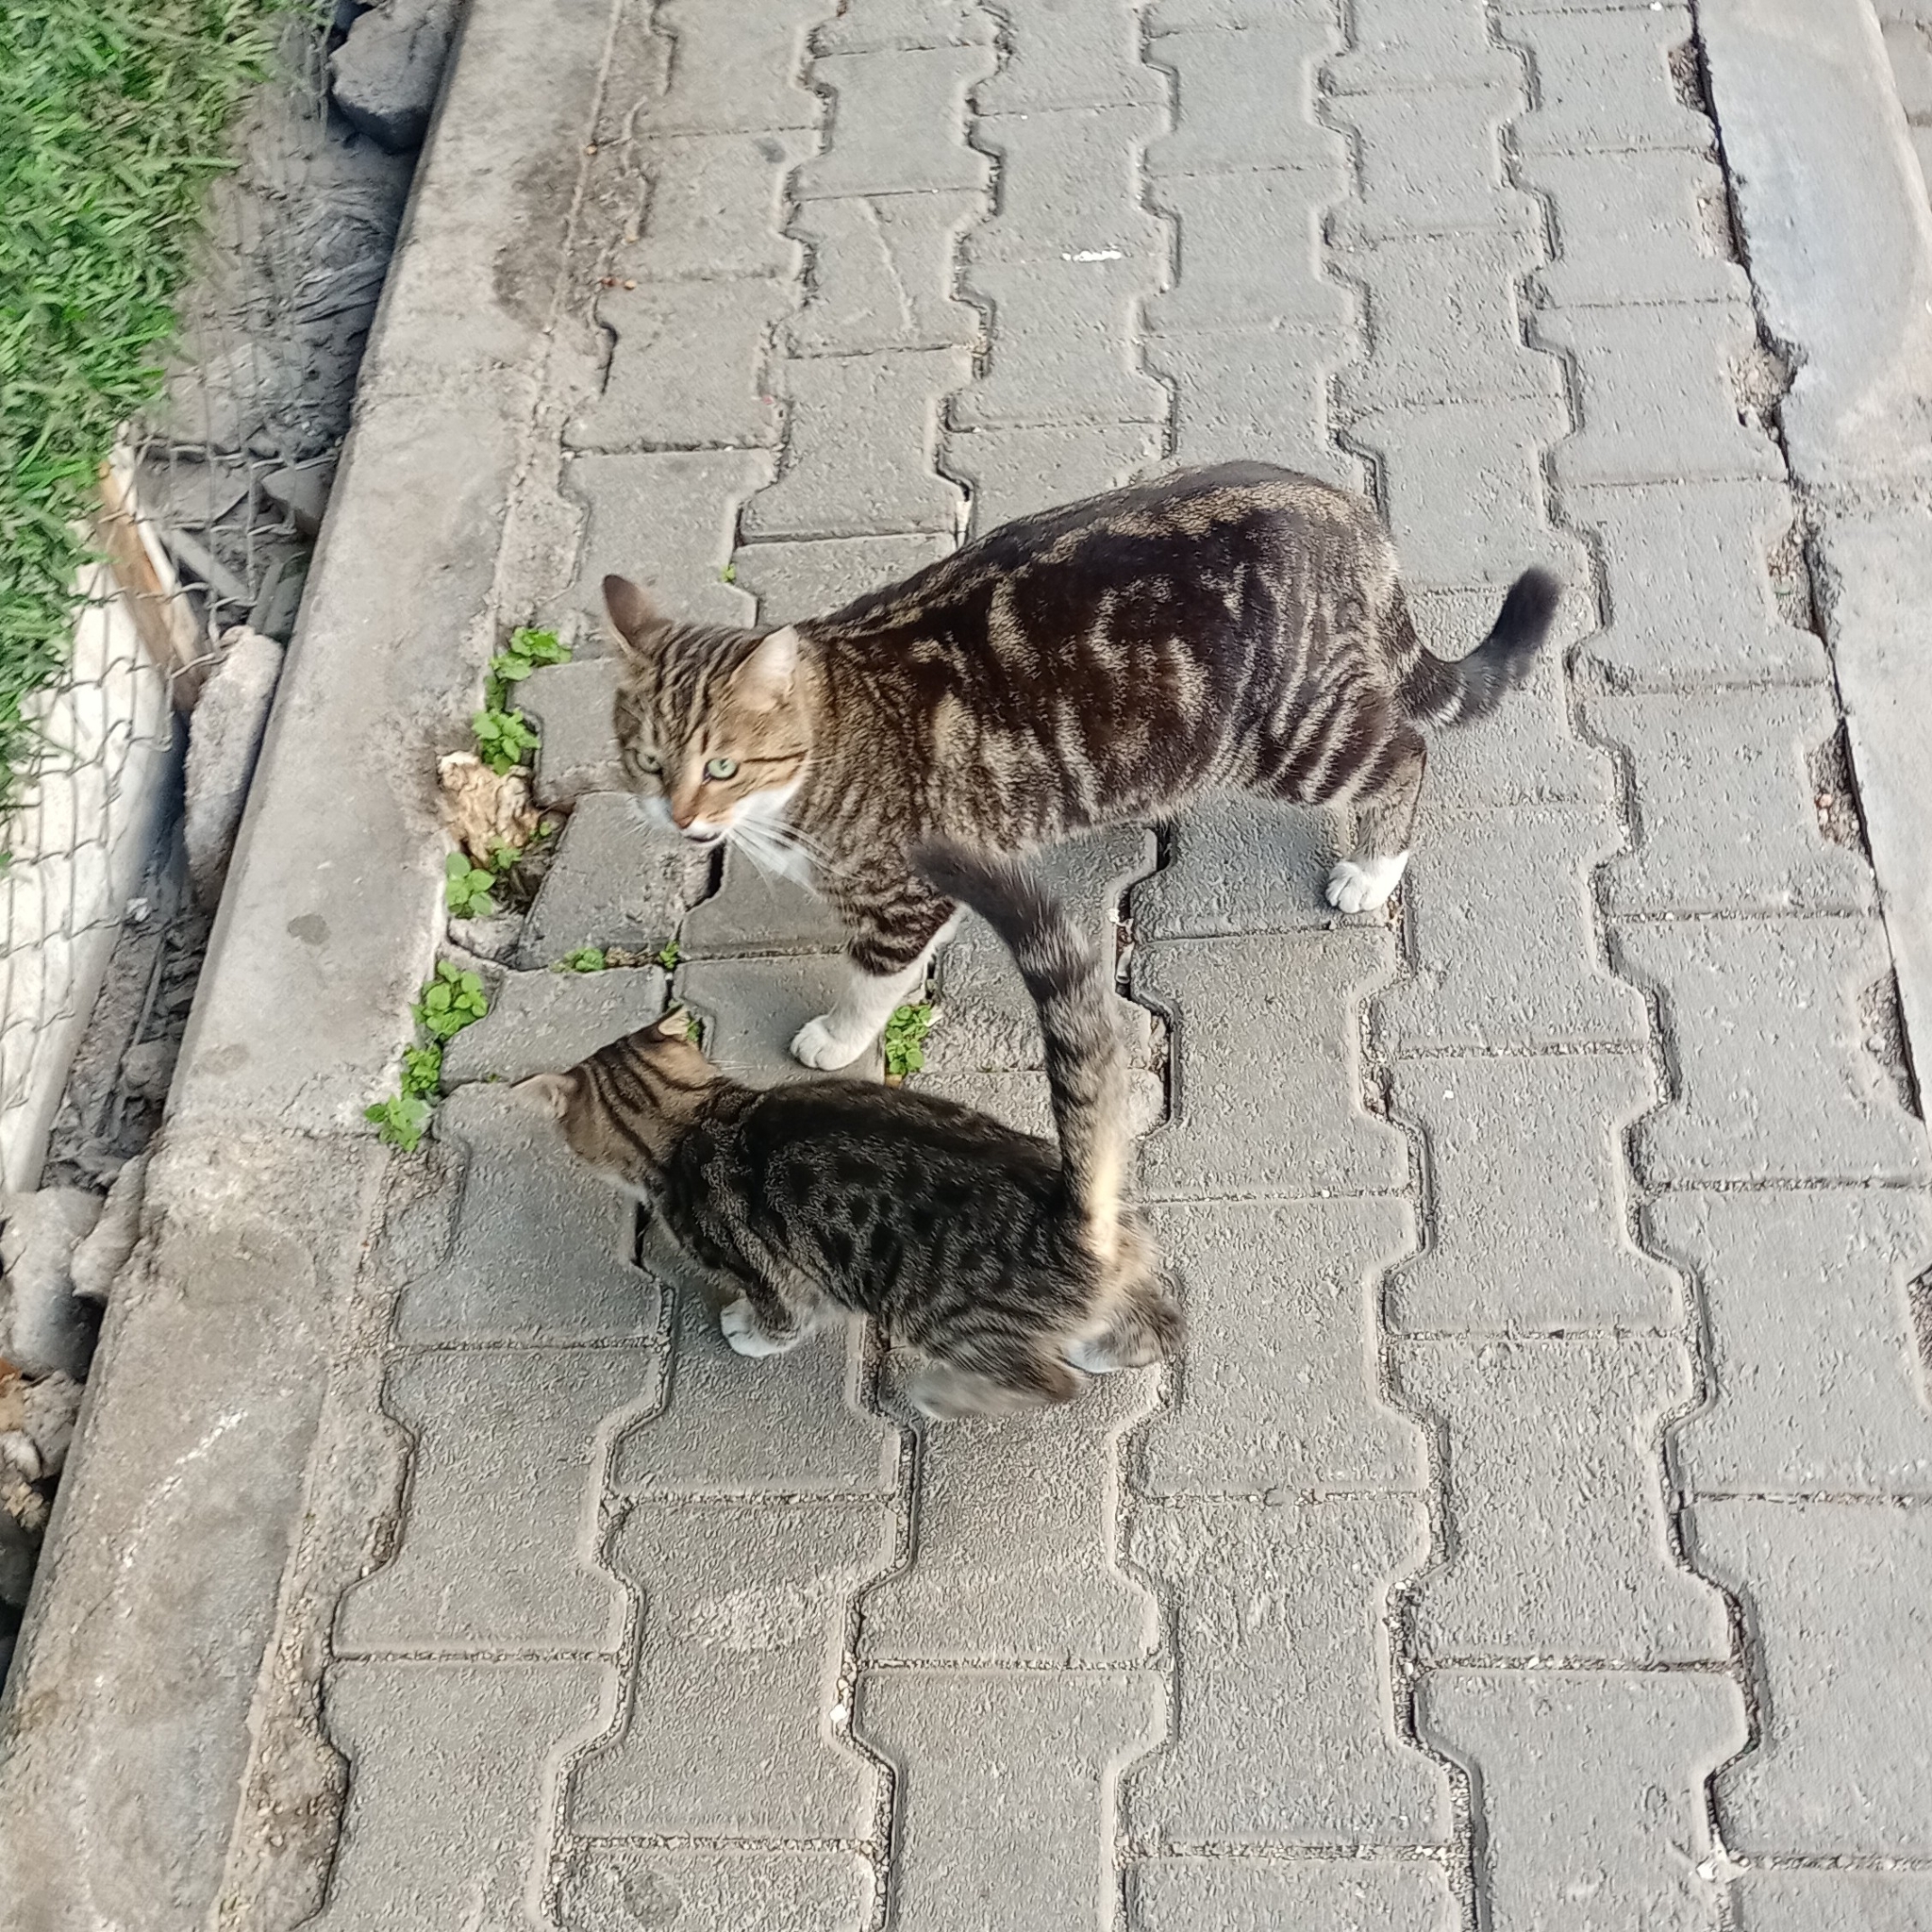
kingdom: Animalia
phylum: Chordata
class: Mammalia
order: Carnivora
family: Felidae
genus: Felis
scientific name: Felis catus
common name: Domestic cat
